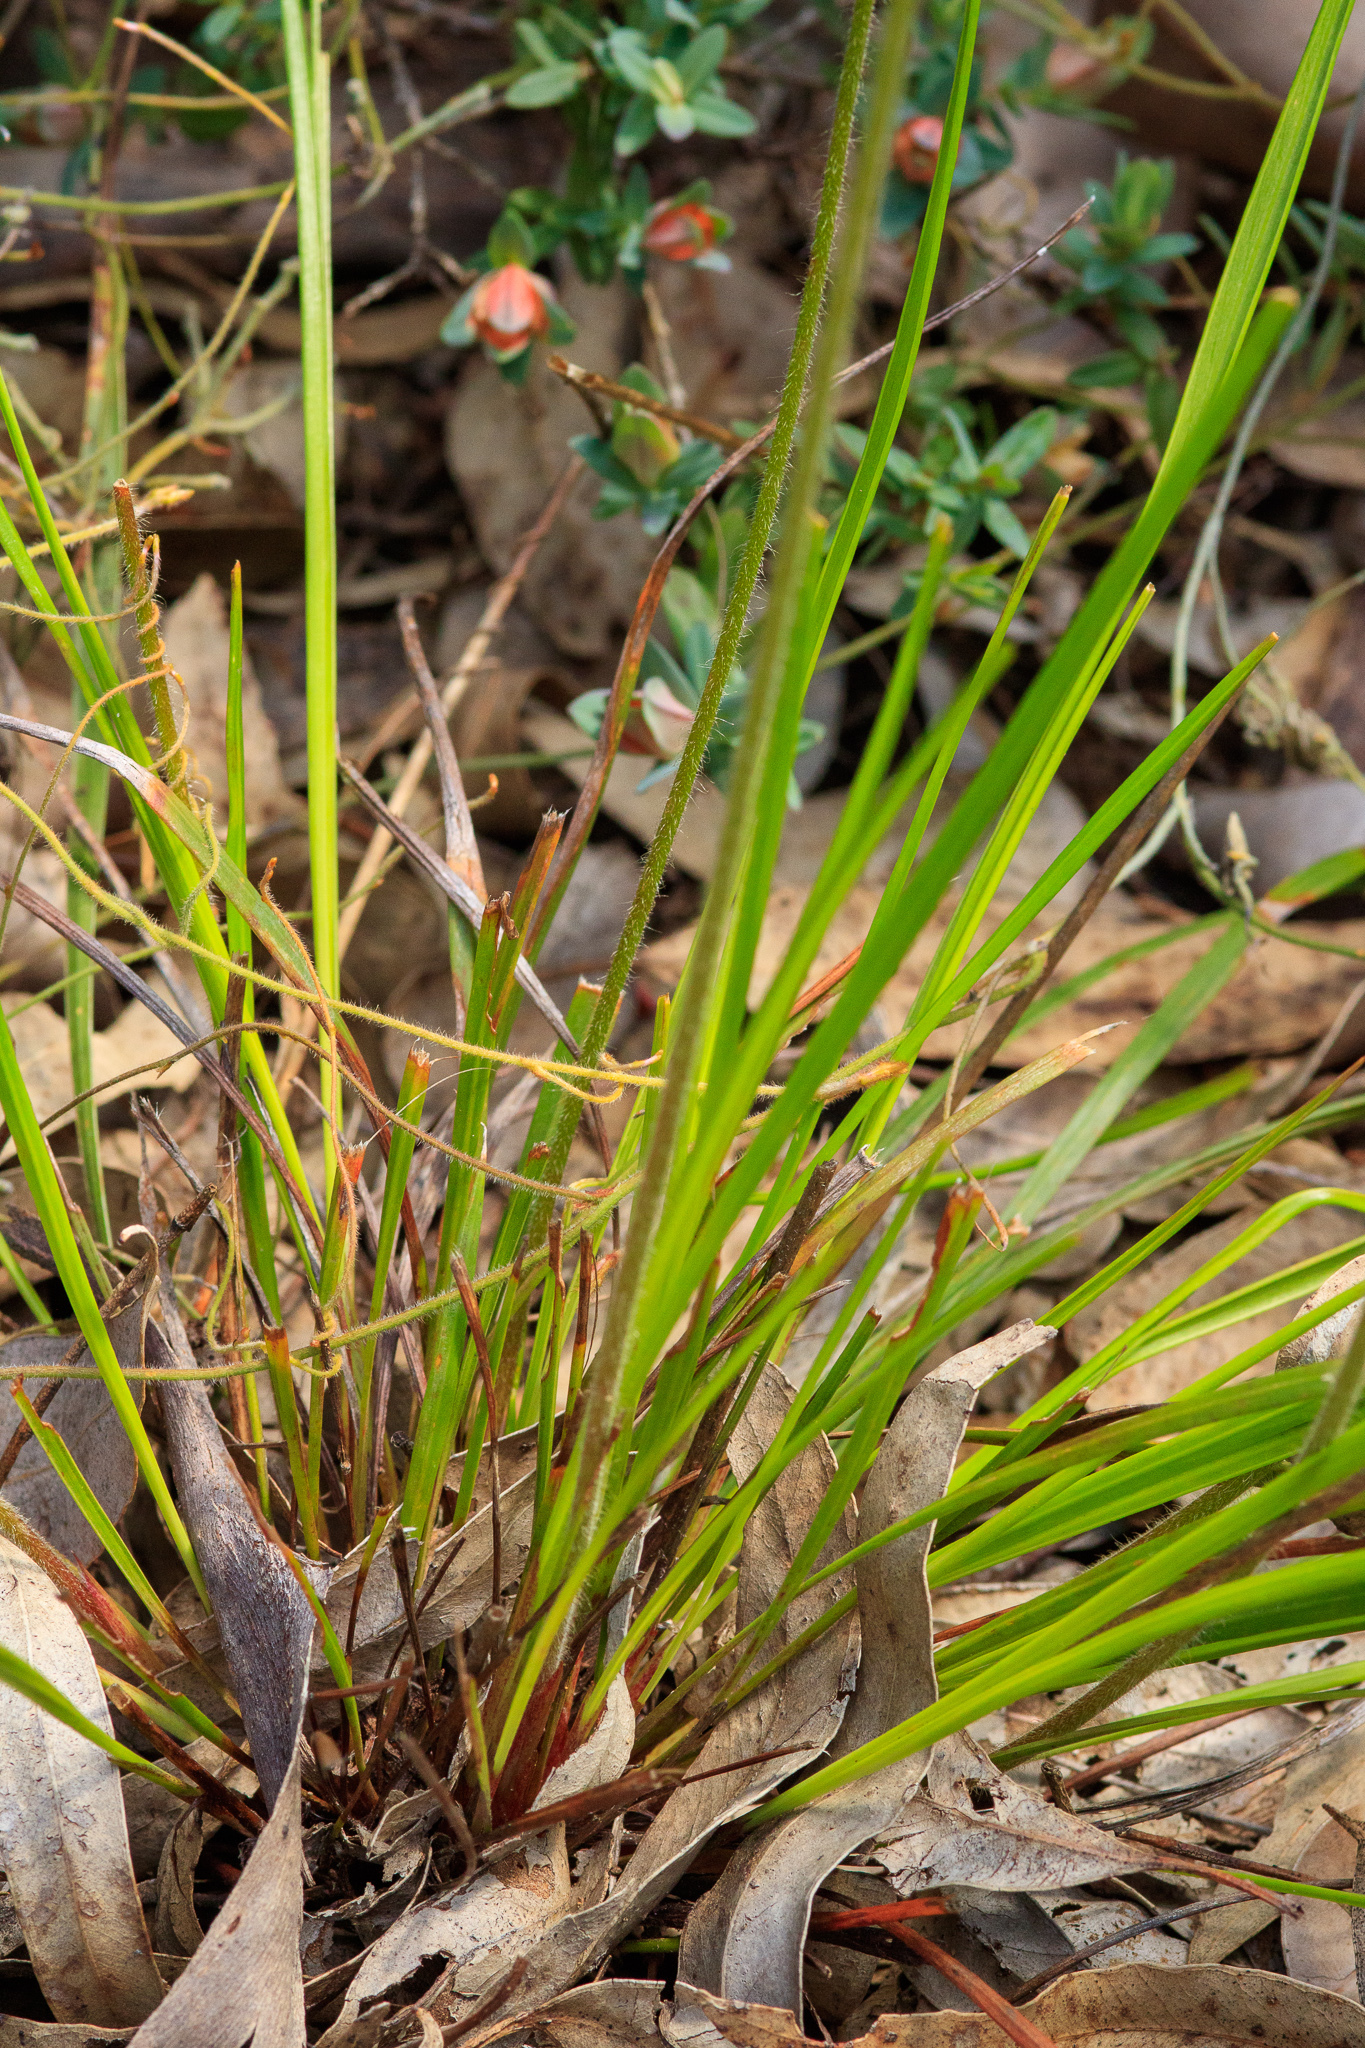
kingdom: Plantae
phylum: Tracheophyta
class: Magnoliopsida
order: Asterales
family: Stylidiaceae
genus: Stylidium
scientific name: Stylidium affine
